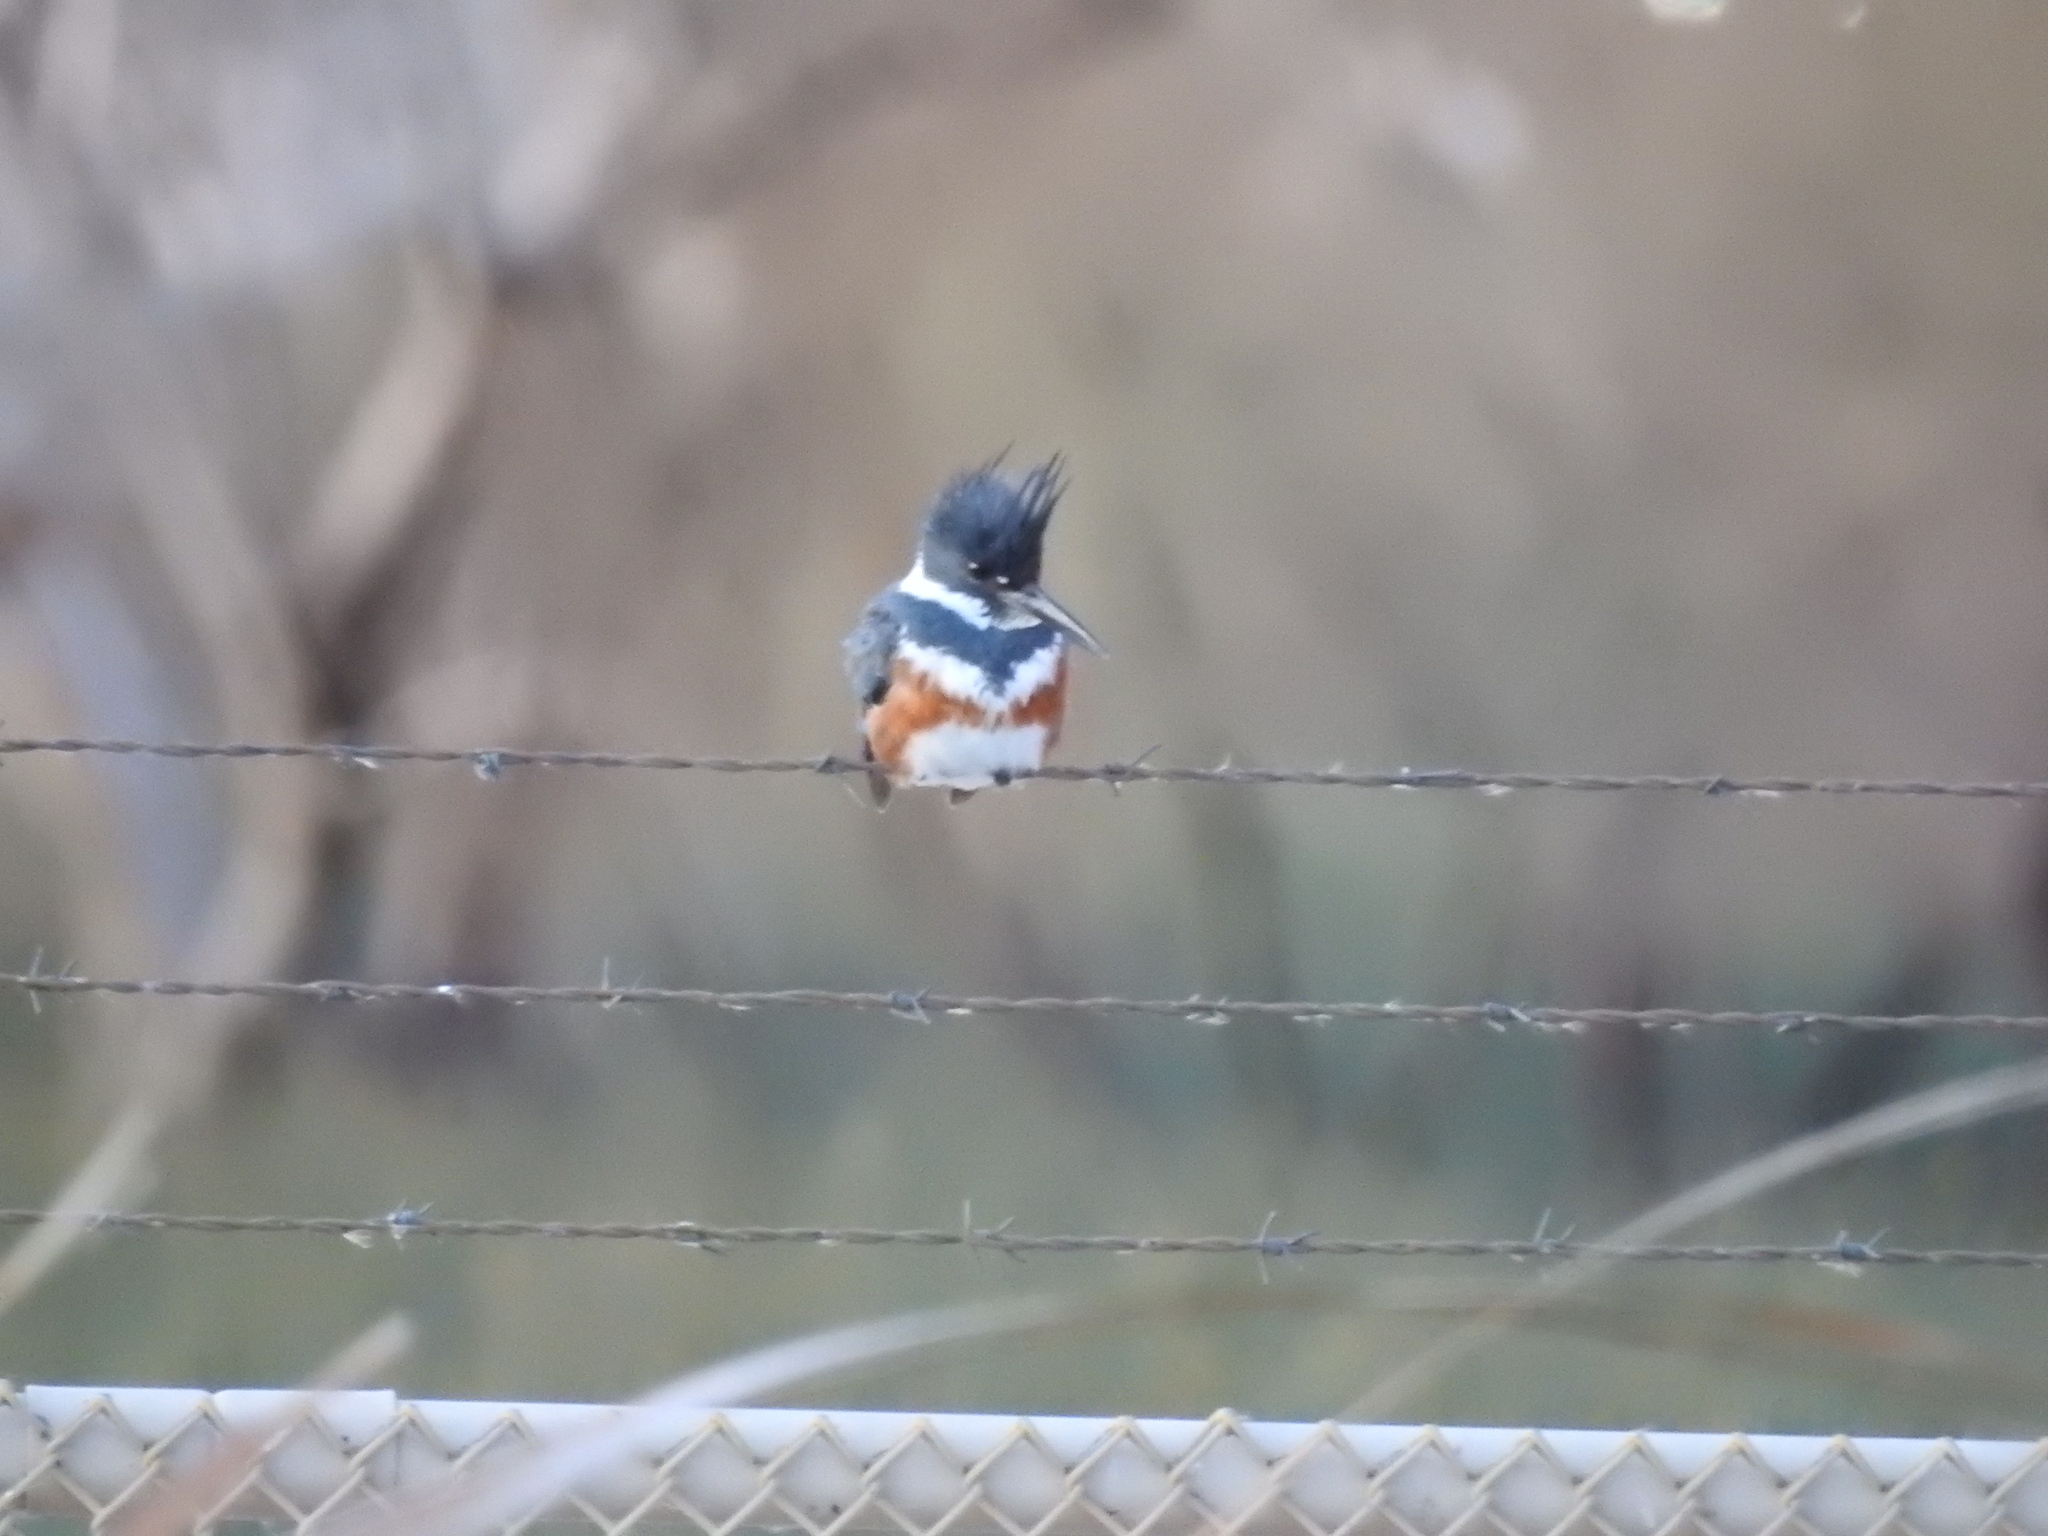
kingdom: Animalia
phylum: Chordata
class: Aves
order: Coraciiformes
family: Alcedinidae
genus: Megaceryle
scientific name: Megaceryle alcyon
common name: Belted kingfisher
